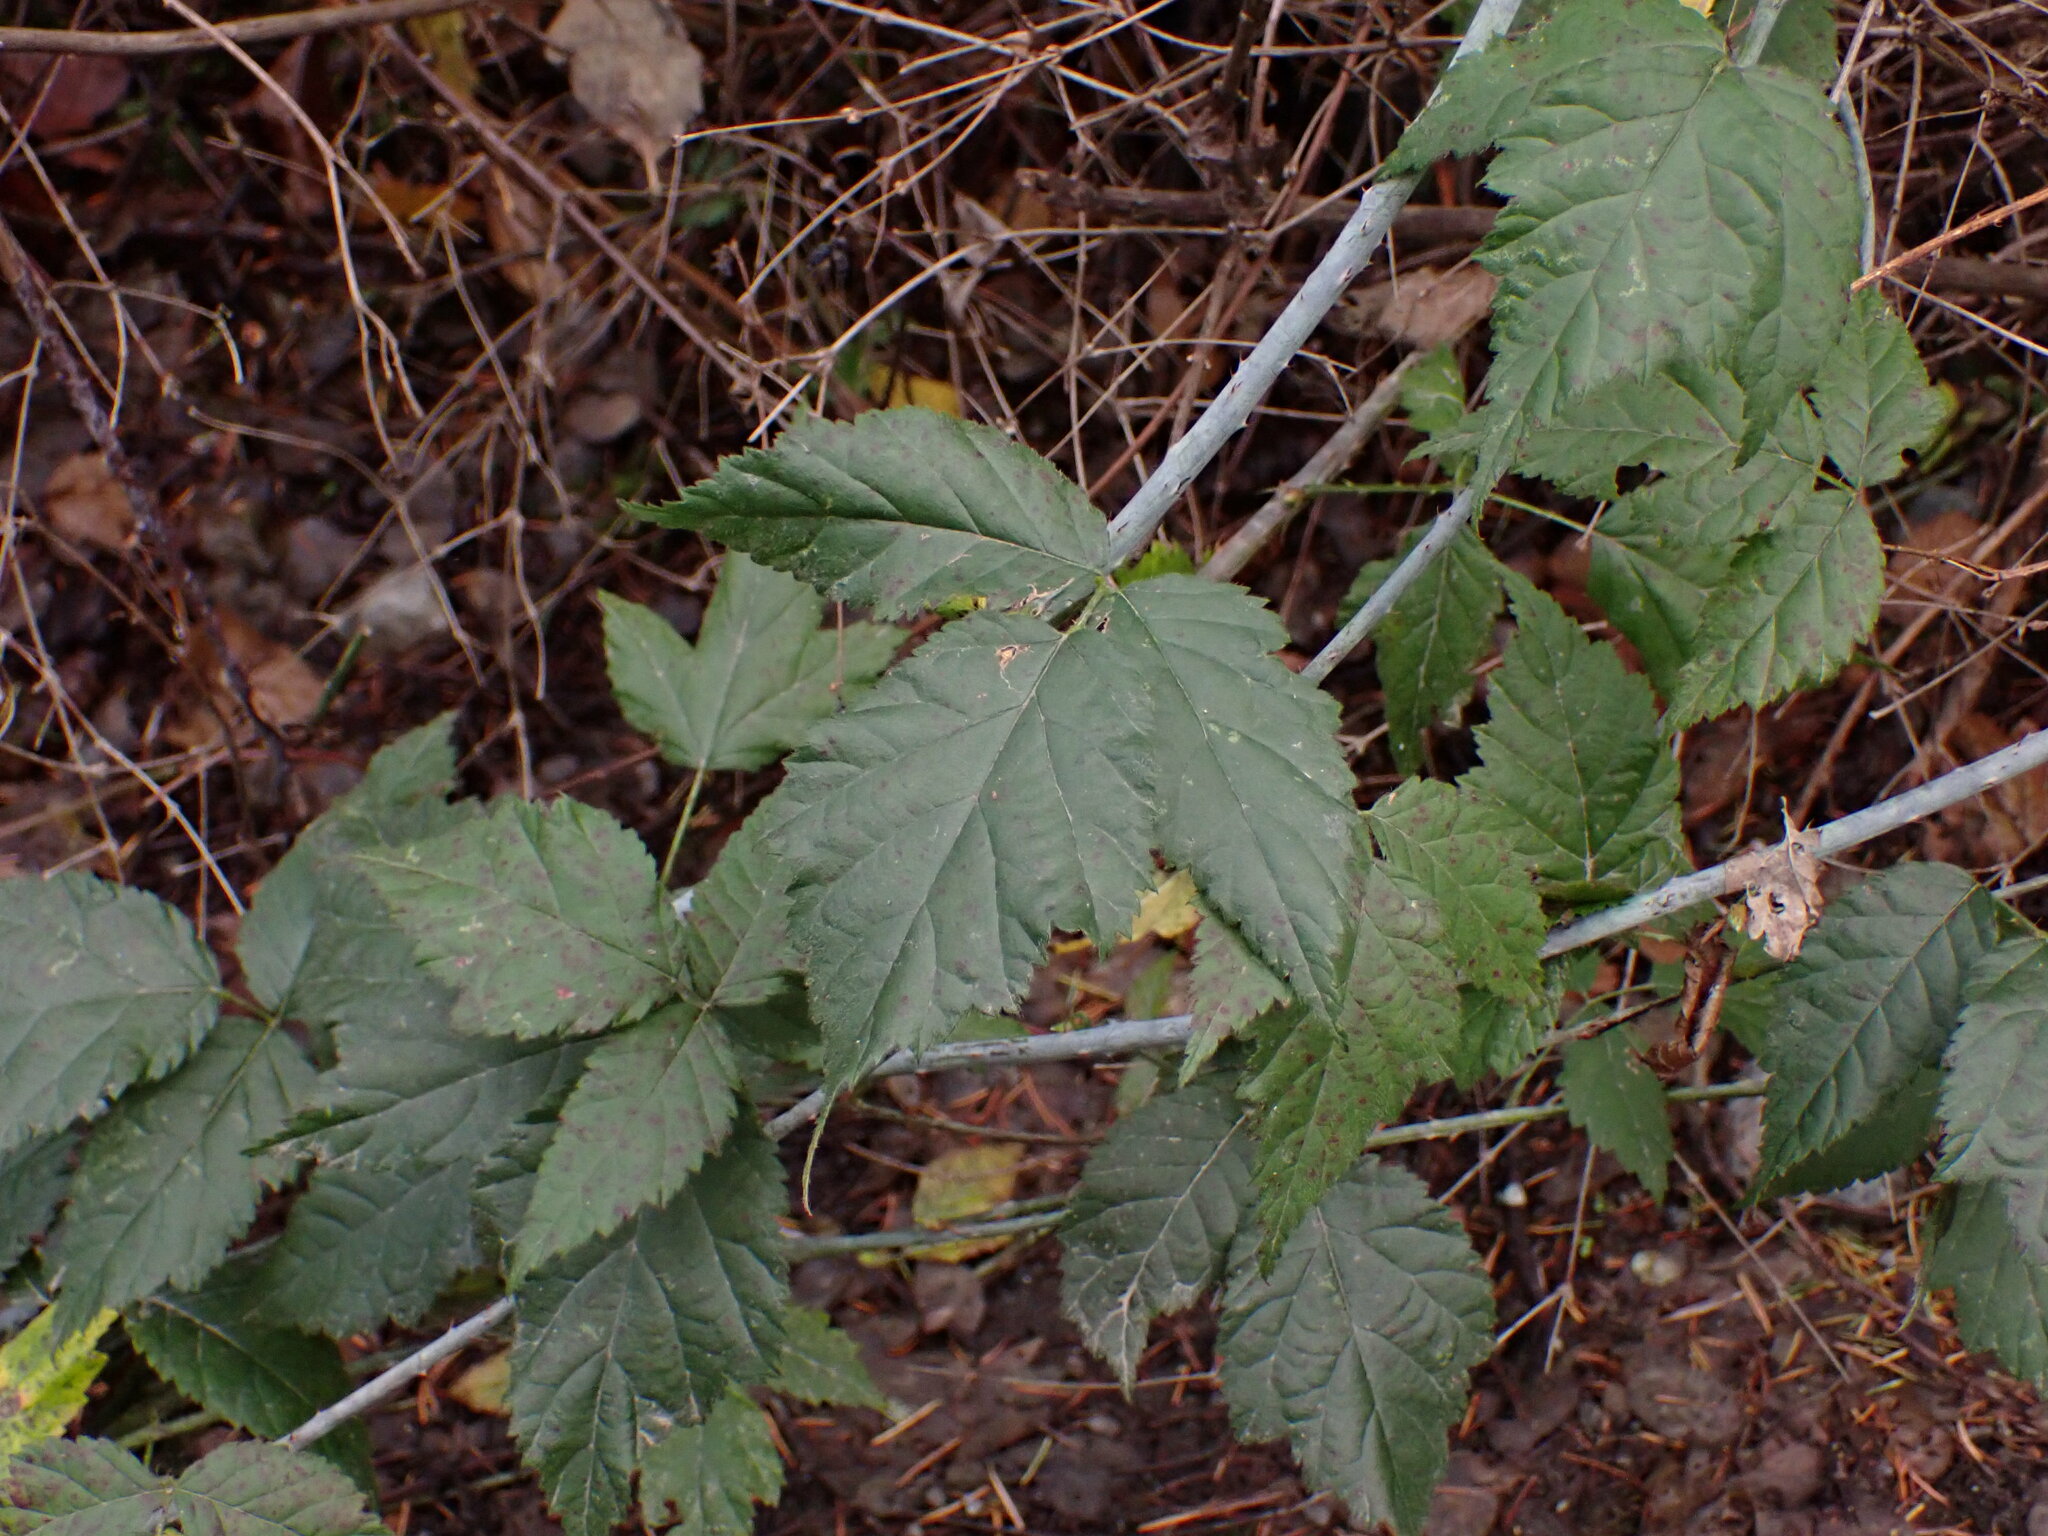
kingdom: Plantae
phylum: Tracheophyta
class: Magnoliopsida
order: Rosales
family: Rosaceae
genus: Rubus
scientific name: Rubus ursinus
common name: Pacific blackberry
